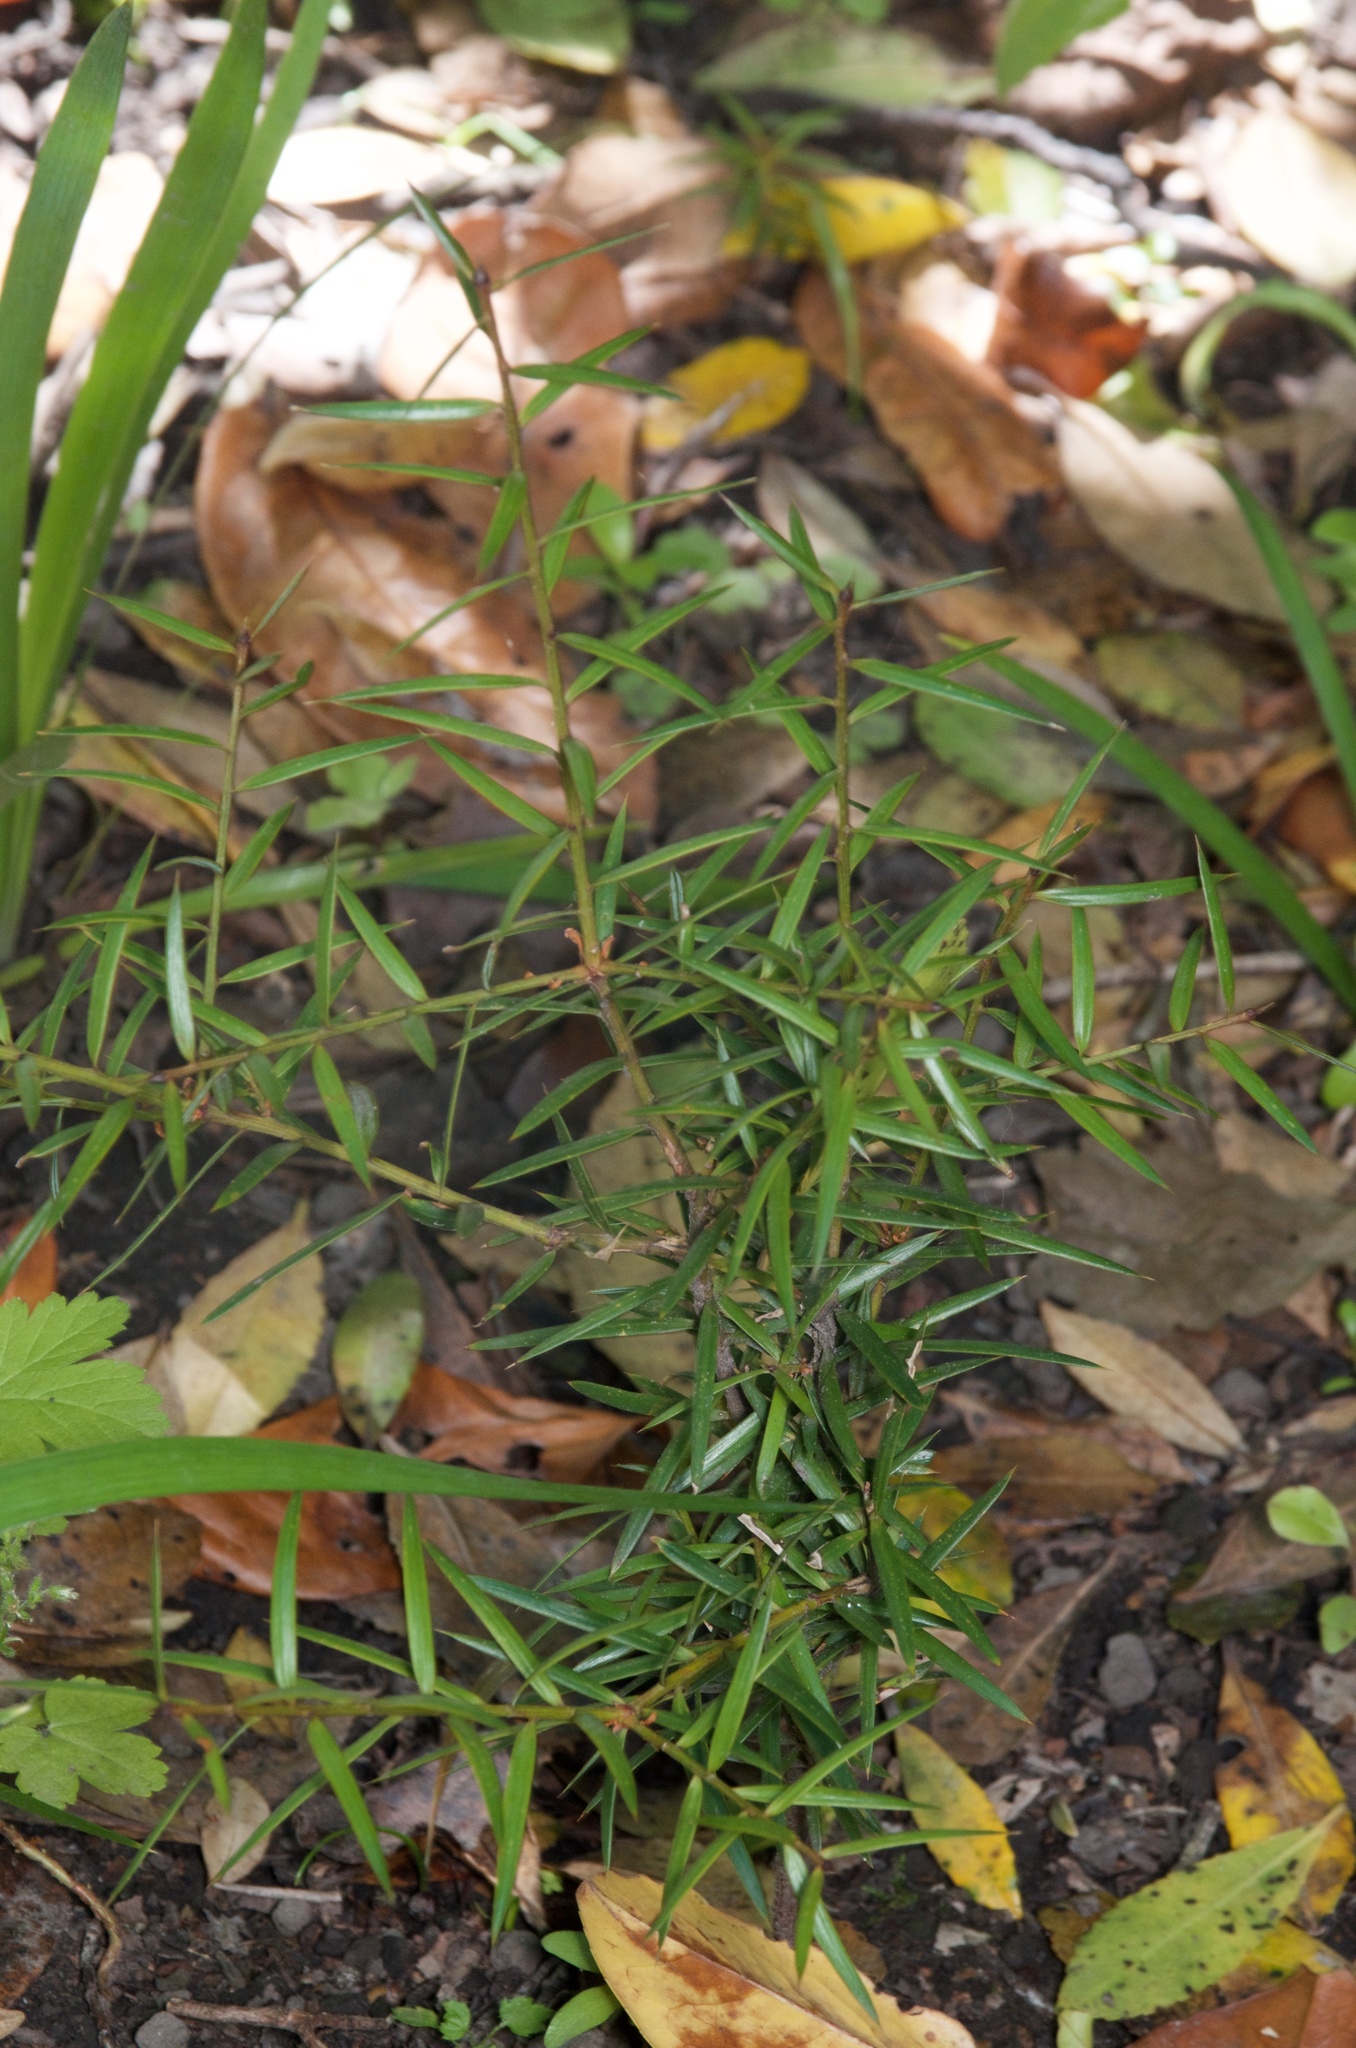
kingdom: Plantae
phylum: Tracheophyta
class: Pinopsida
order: Pinales
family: Podocarpaceae
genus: Podocarpus
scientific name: Podocarpus totara
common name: Totara
